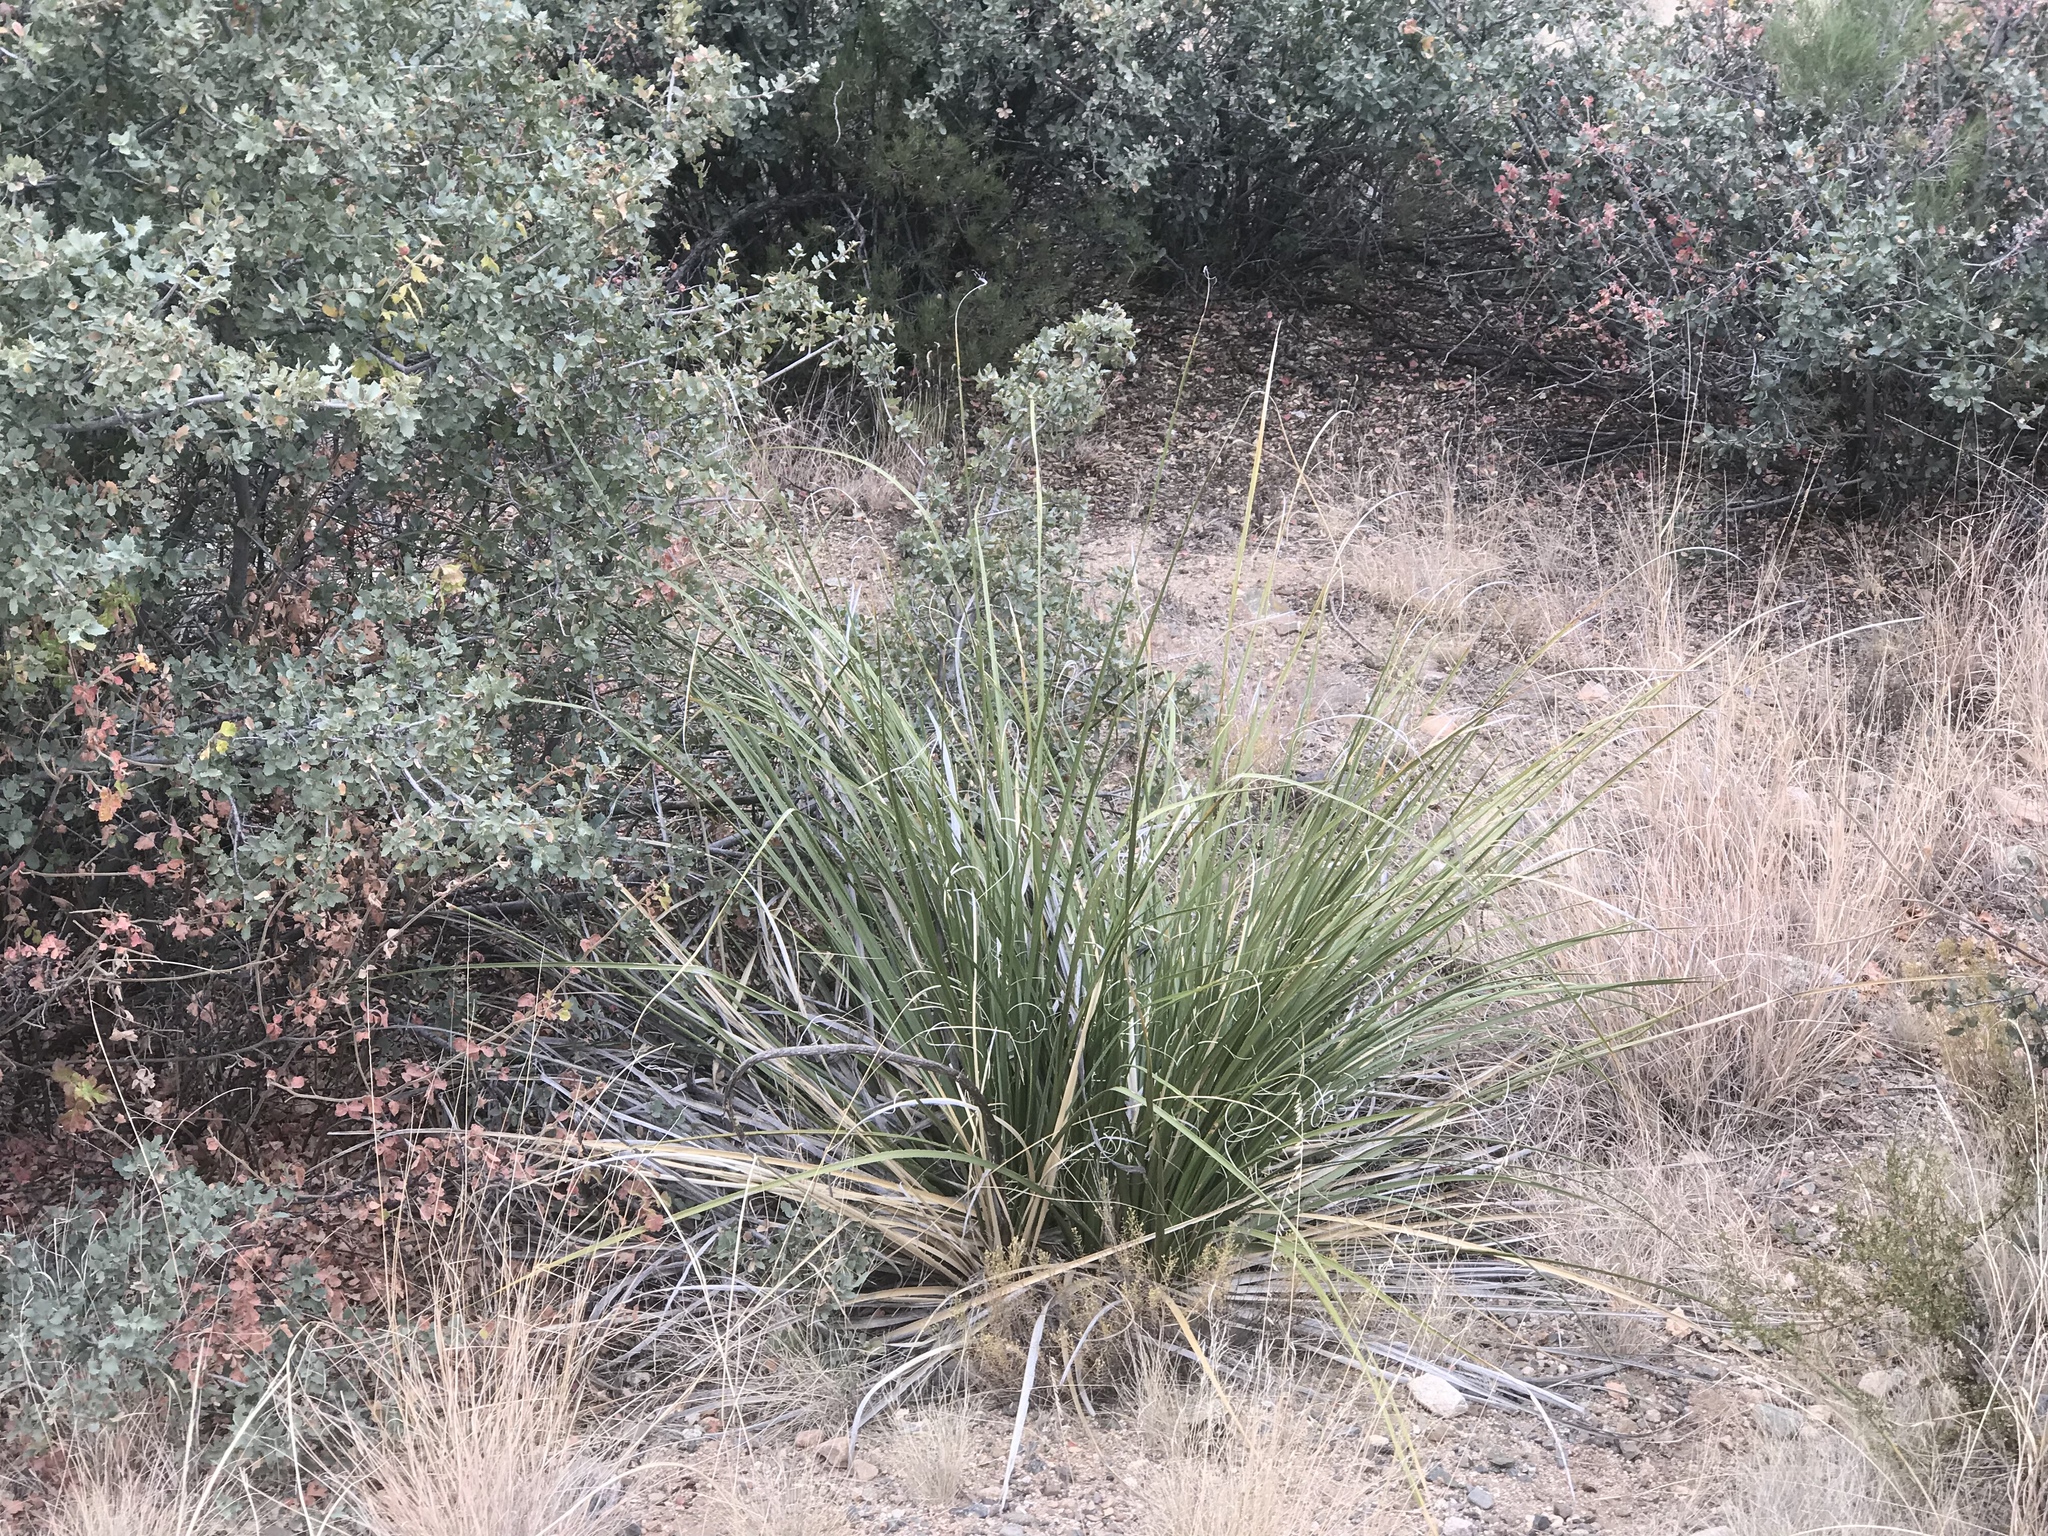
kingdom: Plantae
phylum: Tracheophyta
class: Liliopsida
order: Asparagales
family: Asparagaceae
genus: Nolina
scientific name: Nolina microcarpa
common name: Bear-grass
